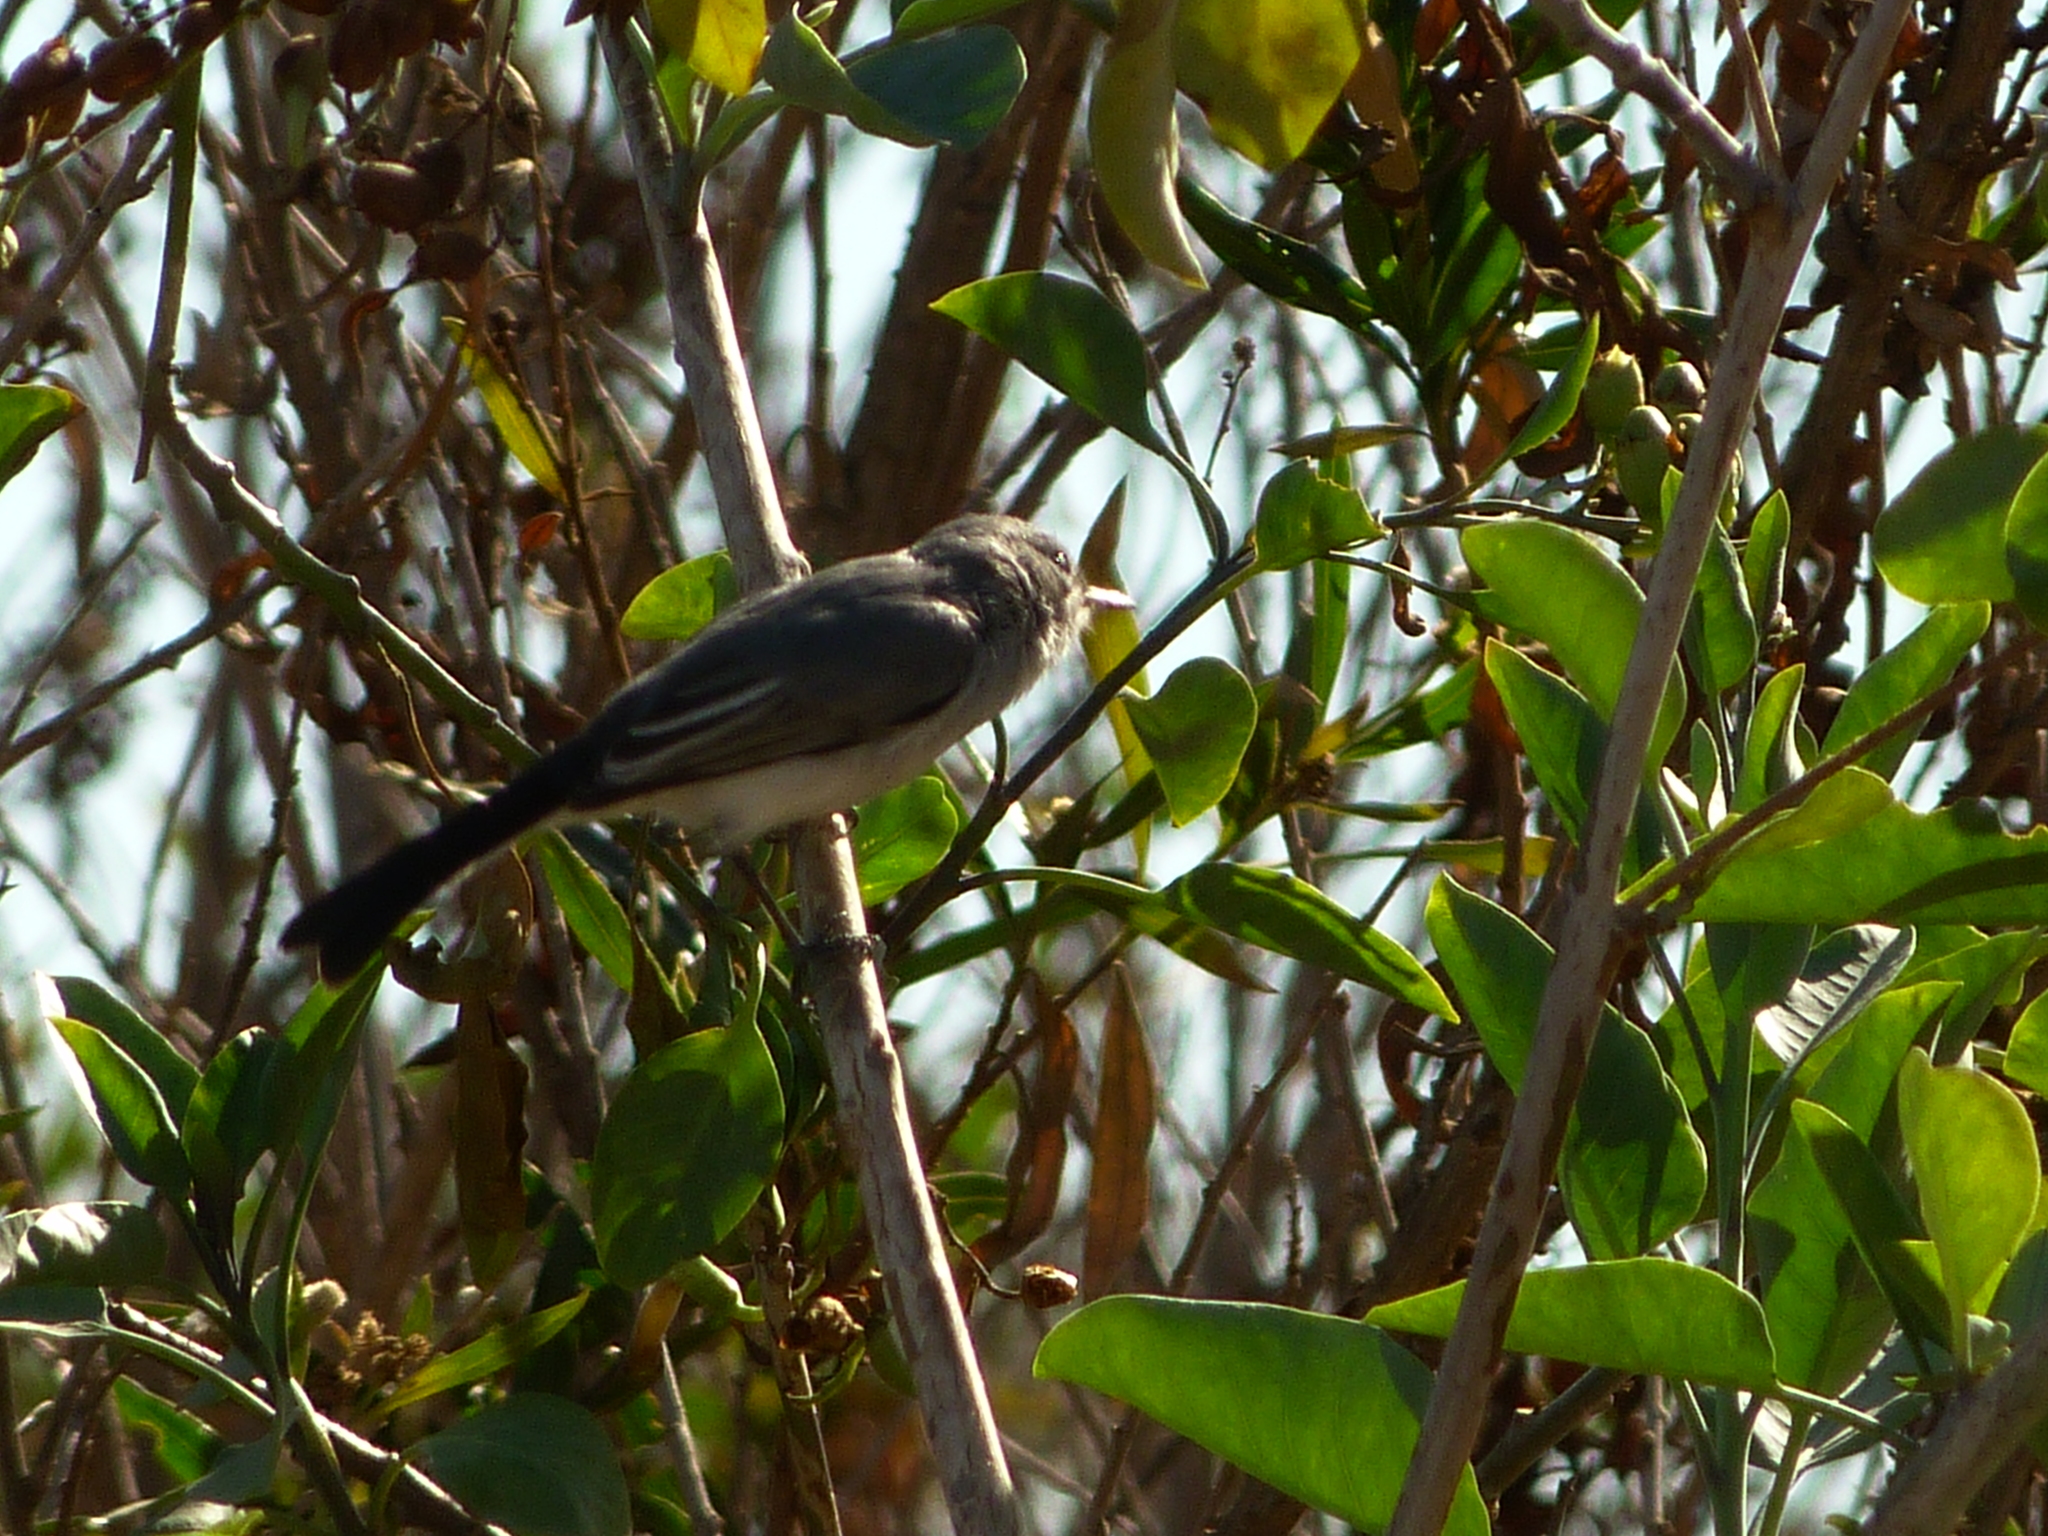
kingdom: Animalia
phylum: Chordata
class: Aves
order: Passeriformes
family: Polioptilidae
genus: Polioptila
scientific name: Polioptila caerulea
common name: Blue-gray gnatcatcher
